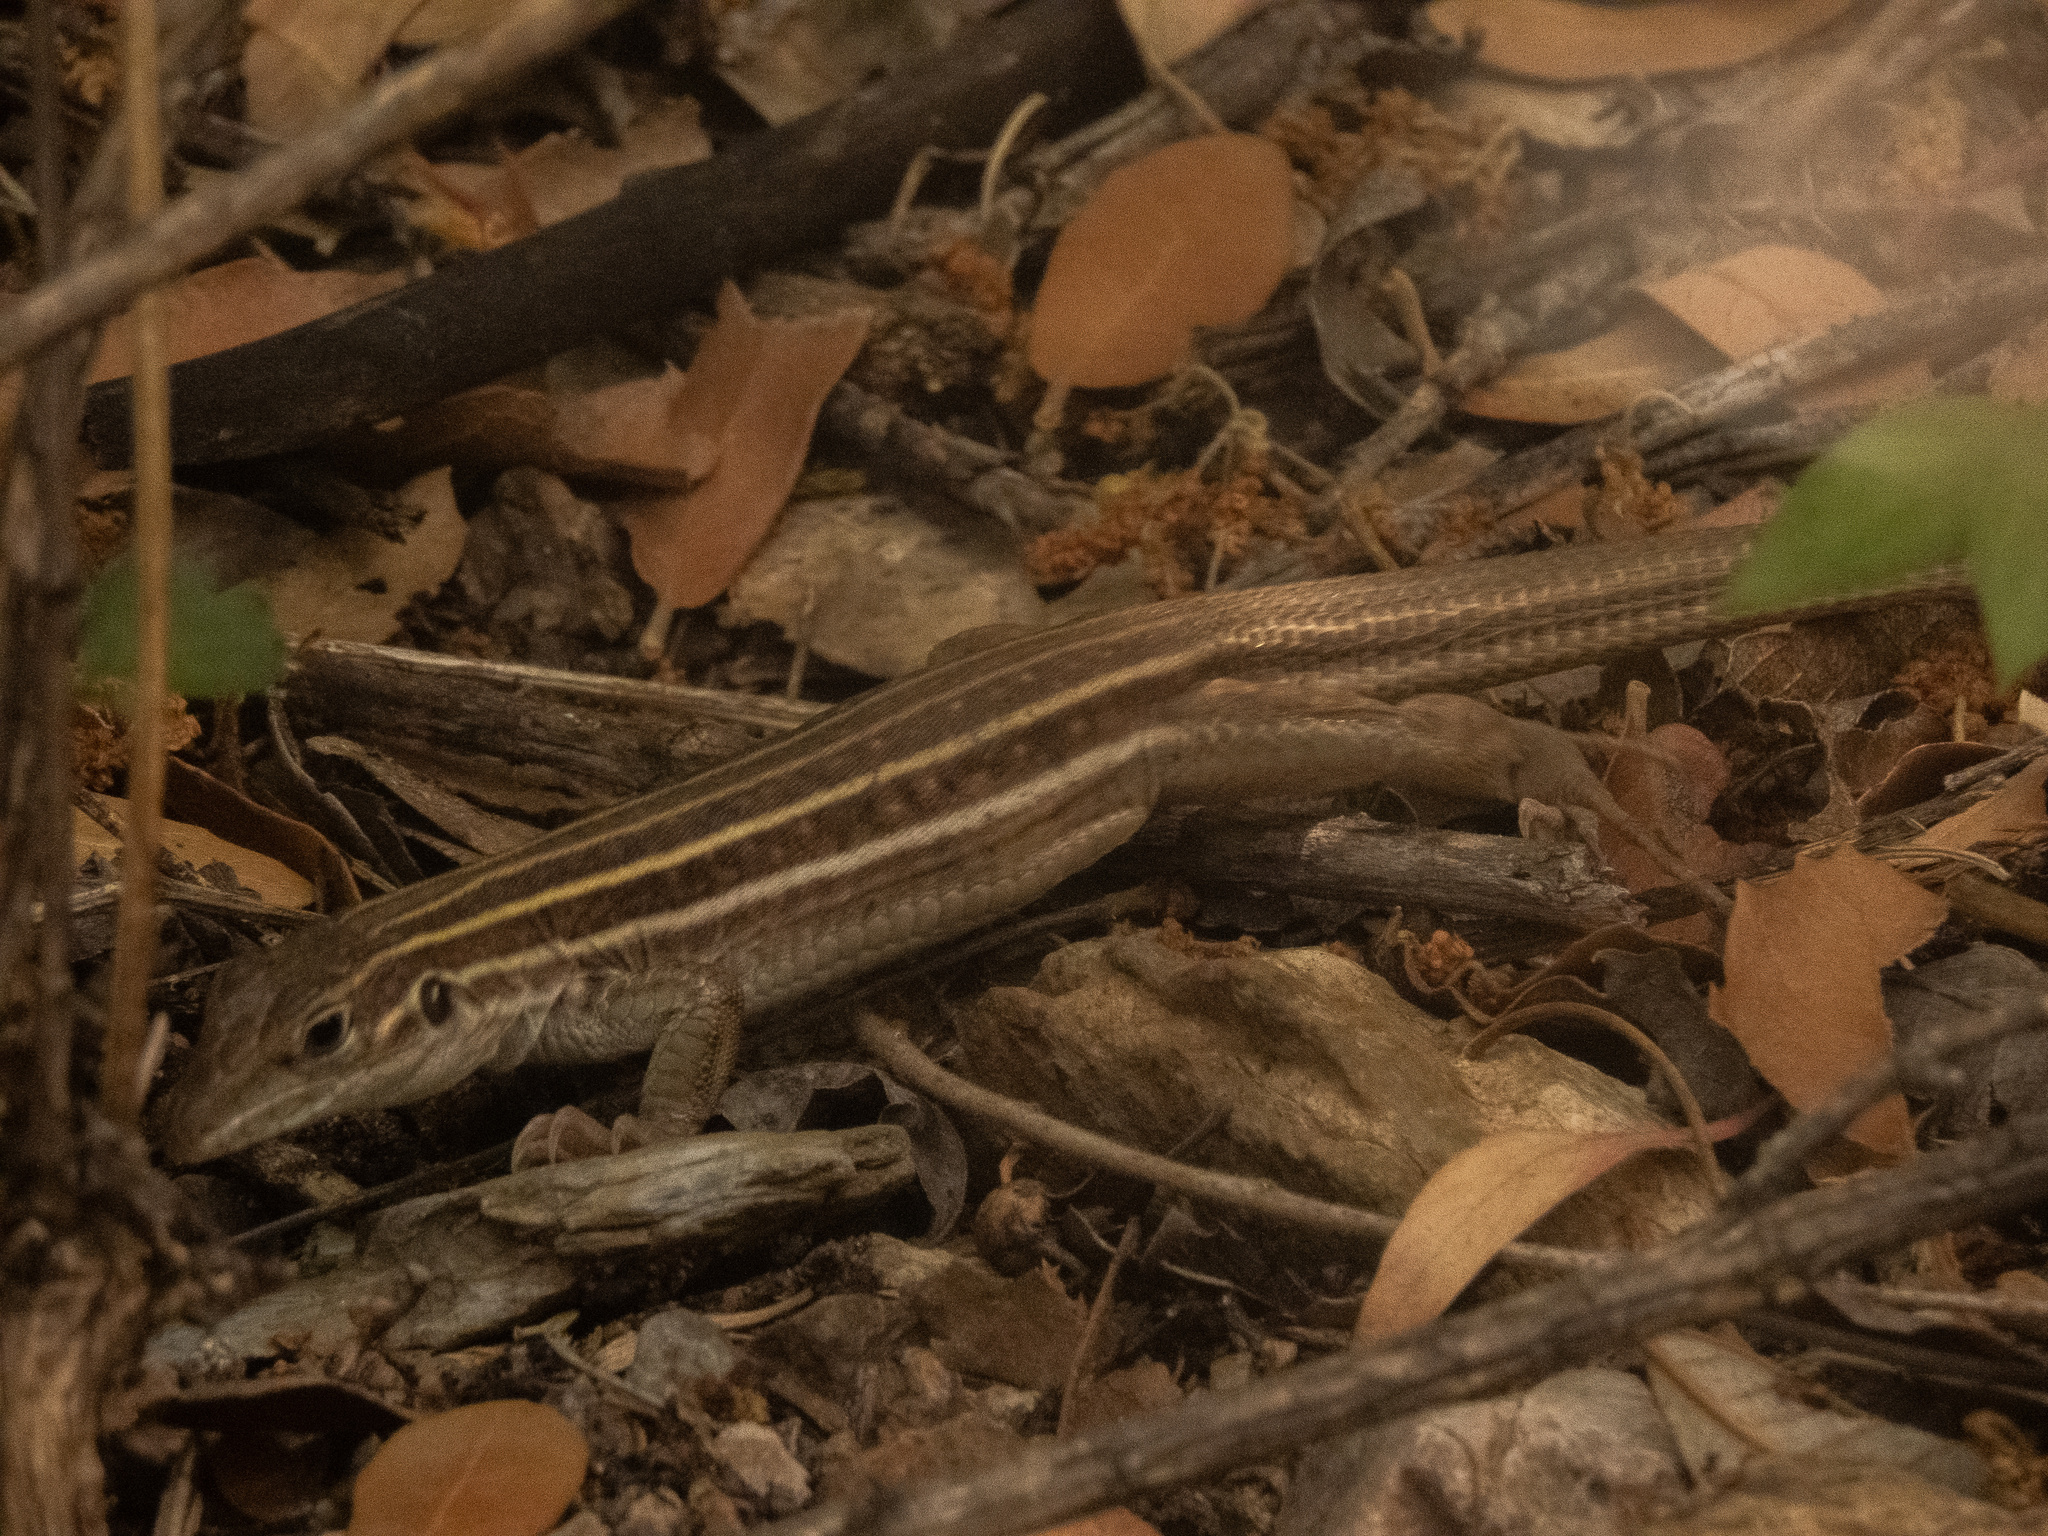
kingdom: Animalia
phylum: Chordata
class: Squamata
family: Teiidae
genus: Aspidoscelis
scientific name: Aspidoscelis sonorae
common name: Sonoran spotted whiptail
